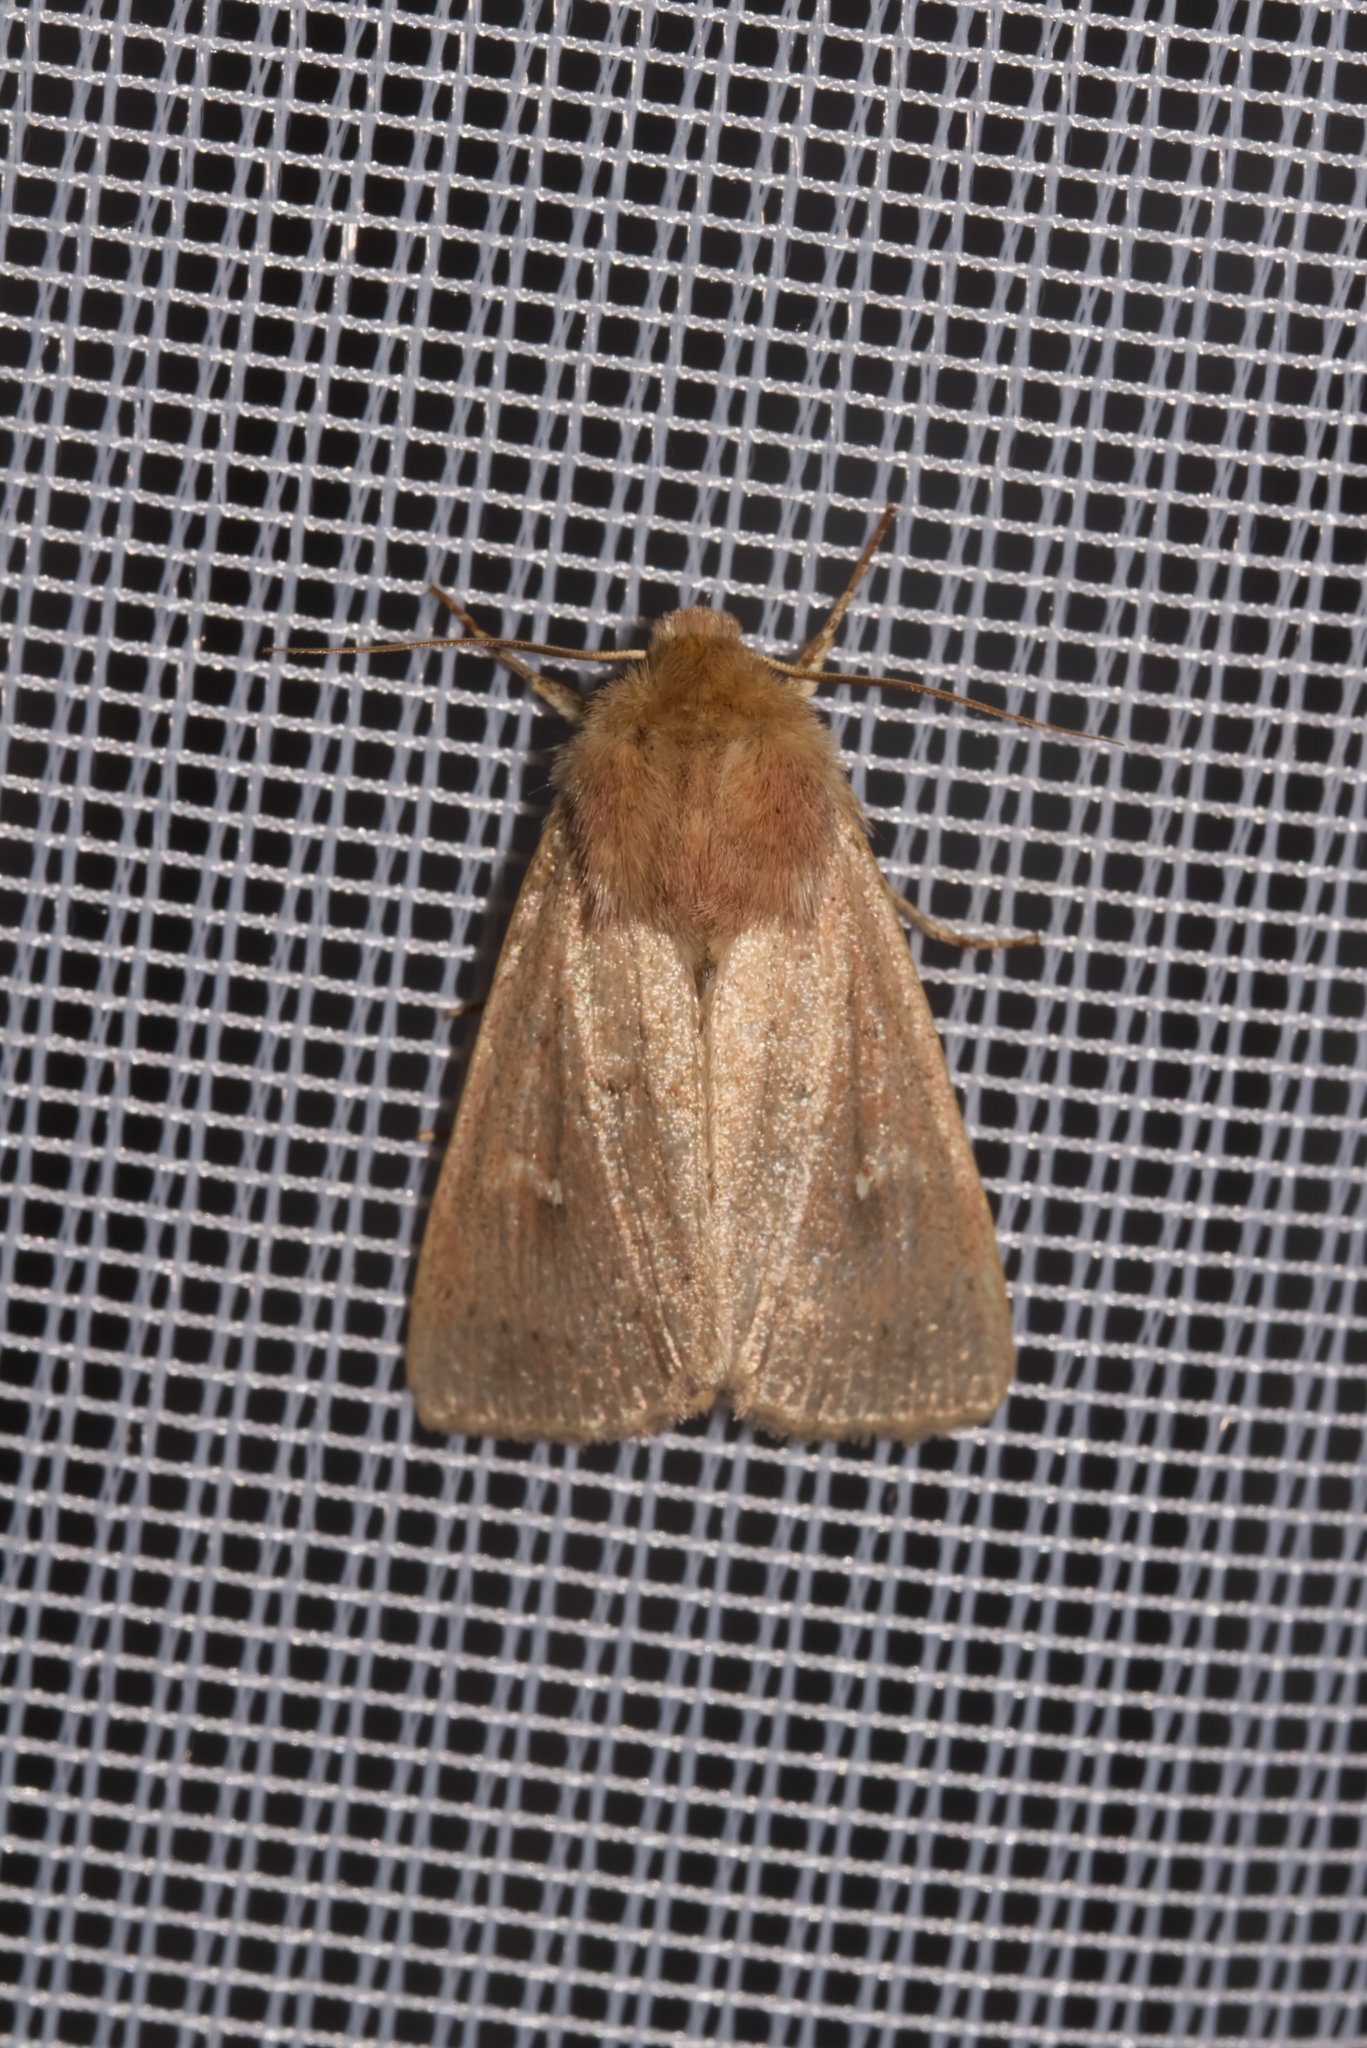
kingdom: Animalia
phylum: Arthropoda
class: Insecta
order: Lepidoptera
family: Noctuidae
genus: Mythimna
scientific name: Mythimna ferrago
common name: Clay
